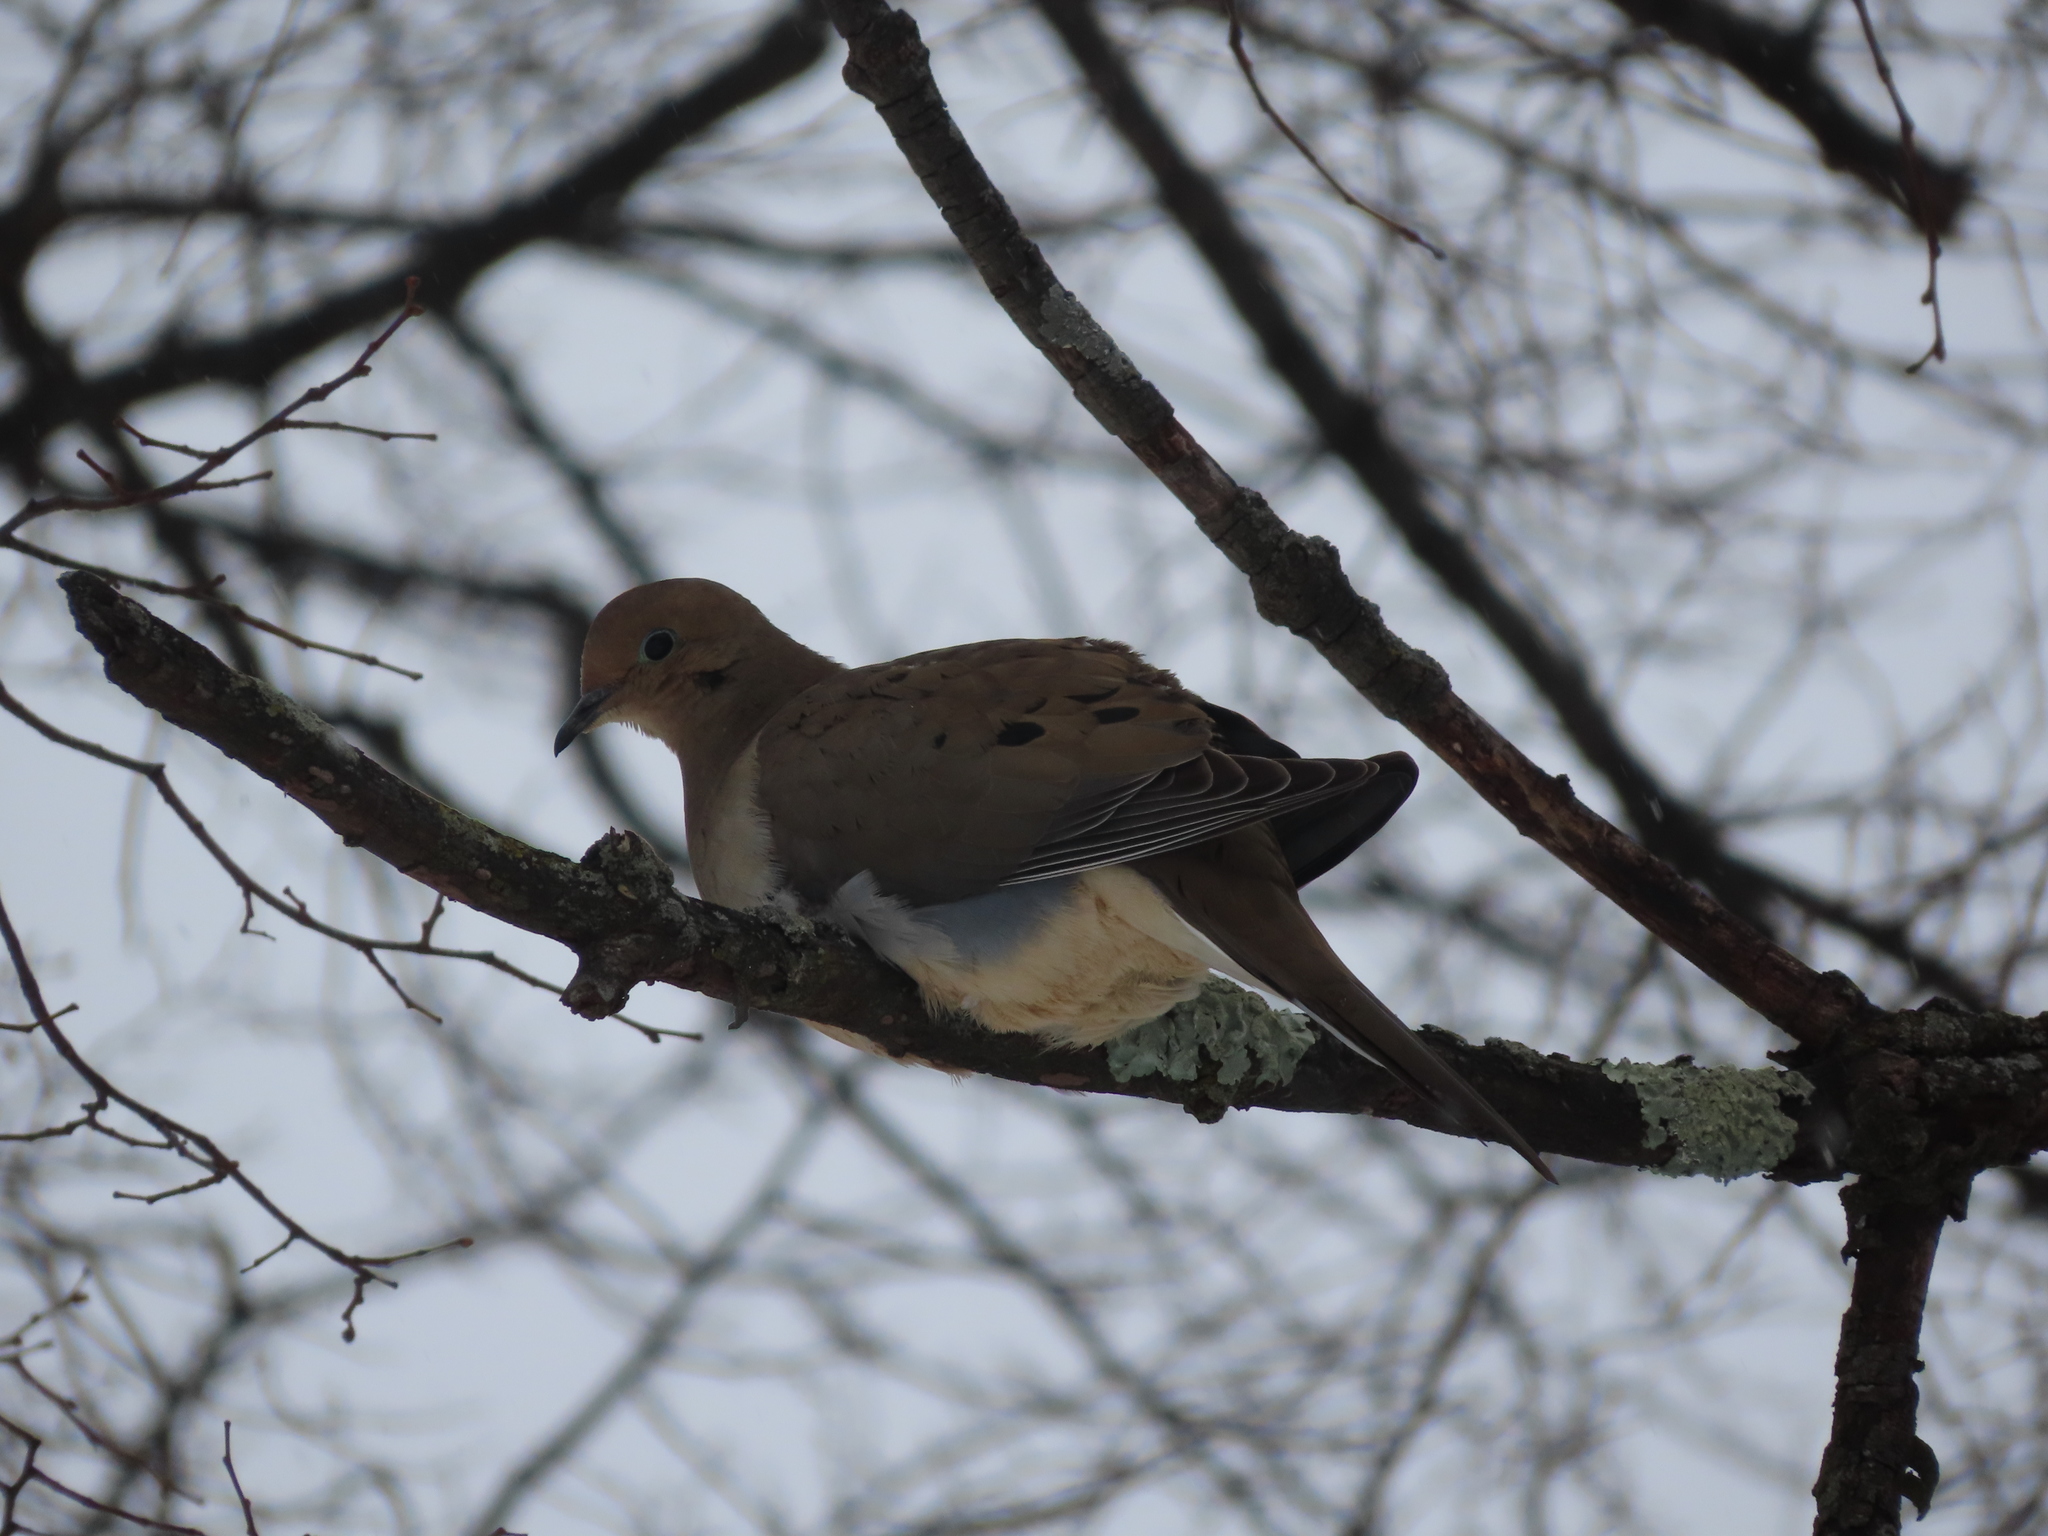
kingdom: Animalia
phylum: Chordata
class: Aves
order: Columbiformes
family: Columbidae
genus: Zenaida
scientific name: Zenaida macroura
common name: Mourning dove
